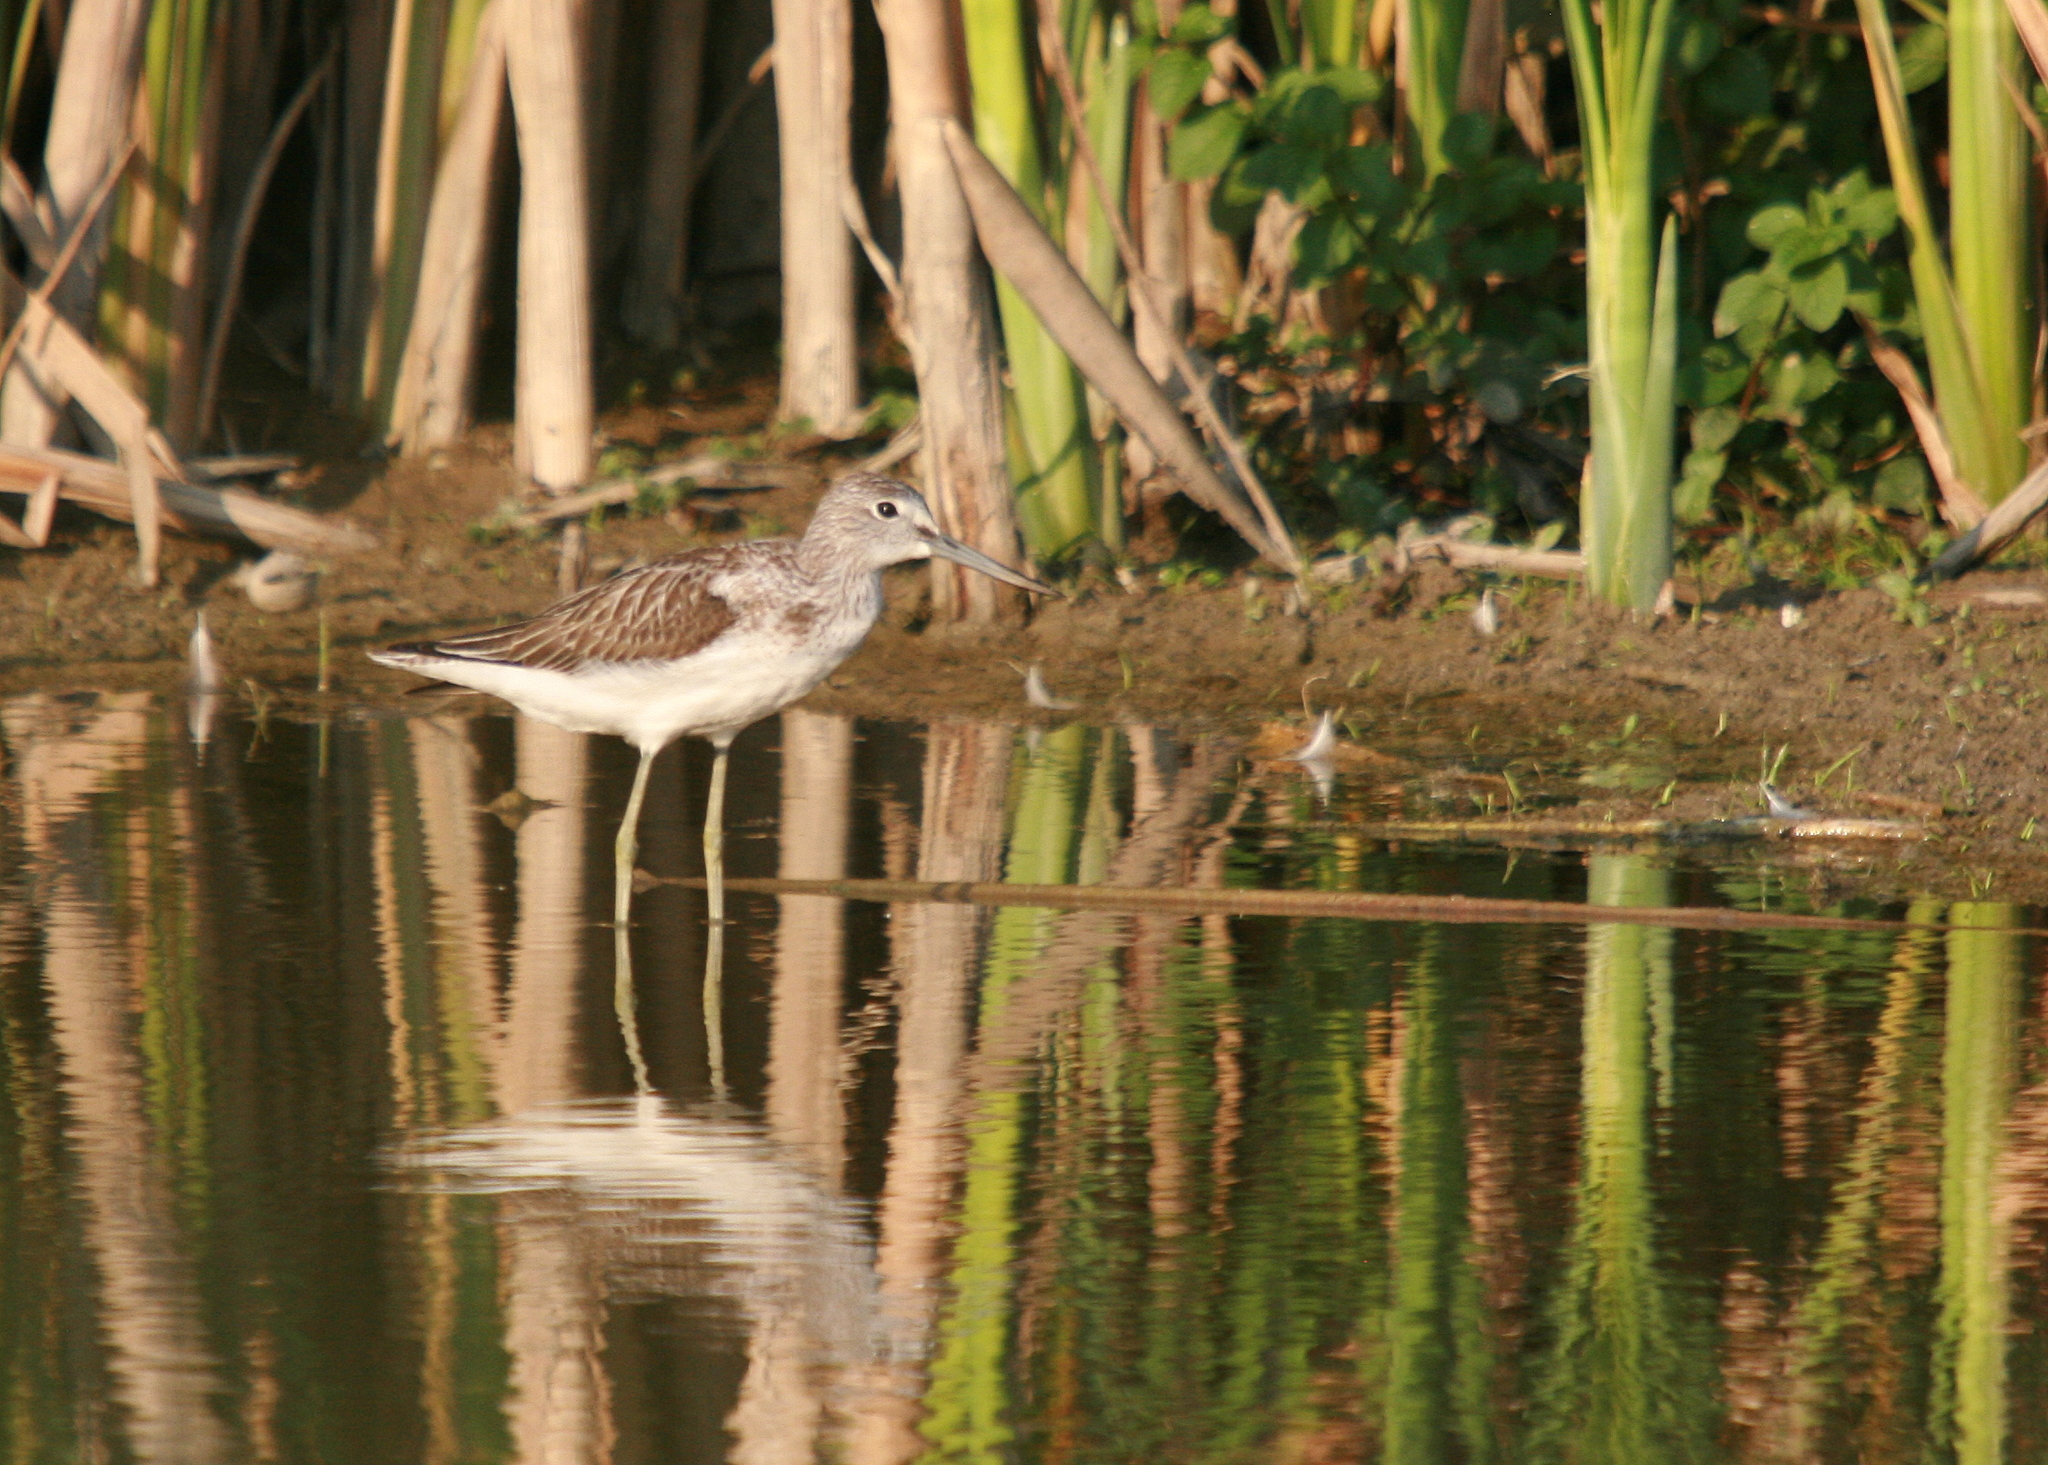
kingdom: Animalia
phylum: Chordata
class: Aves
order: Charadriiformes
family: Scolopacidae
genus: Tringa
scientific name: Tringa nebularia
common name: Common greenshank
